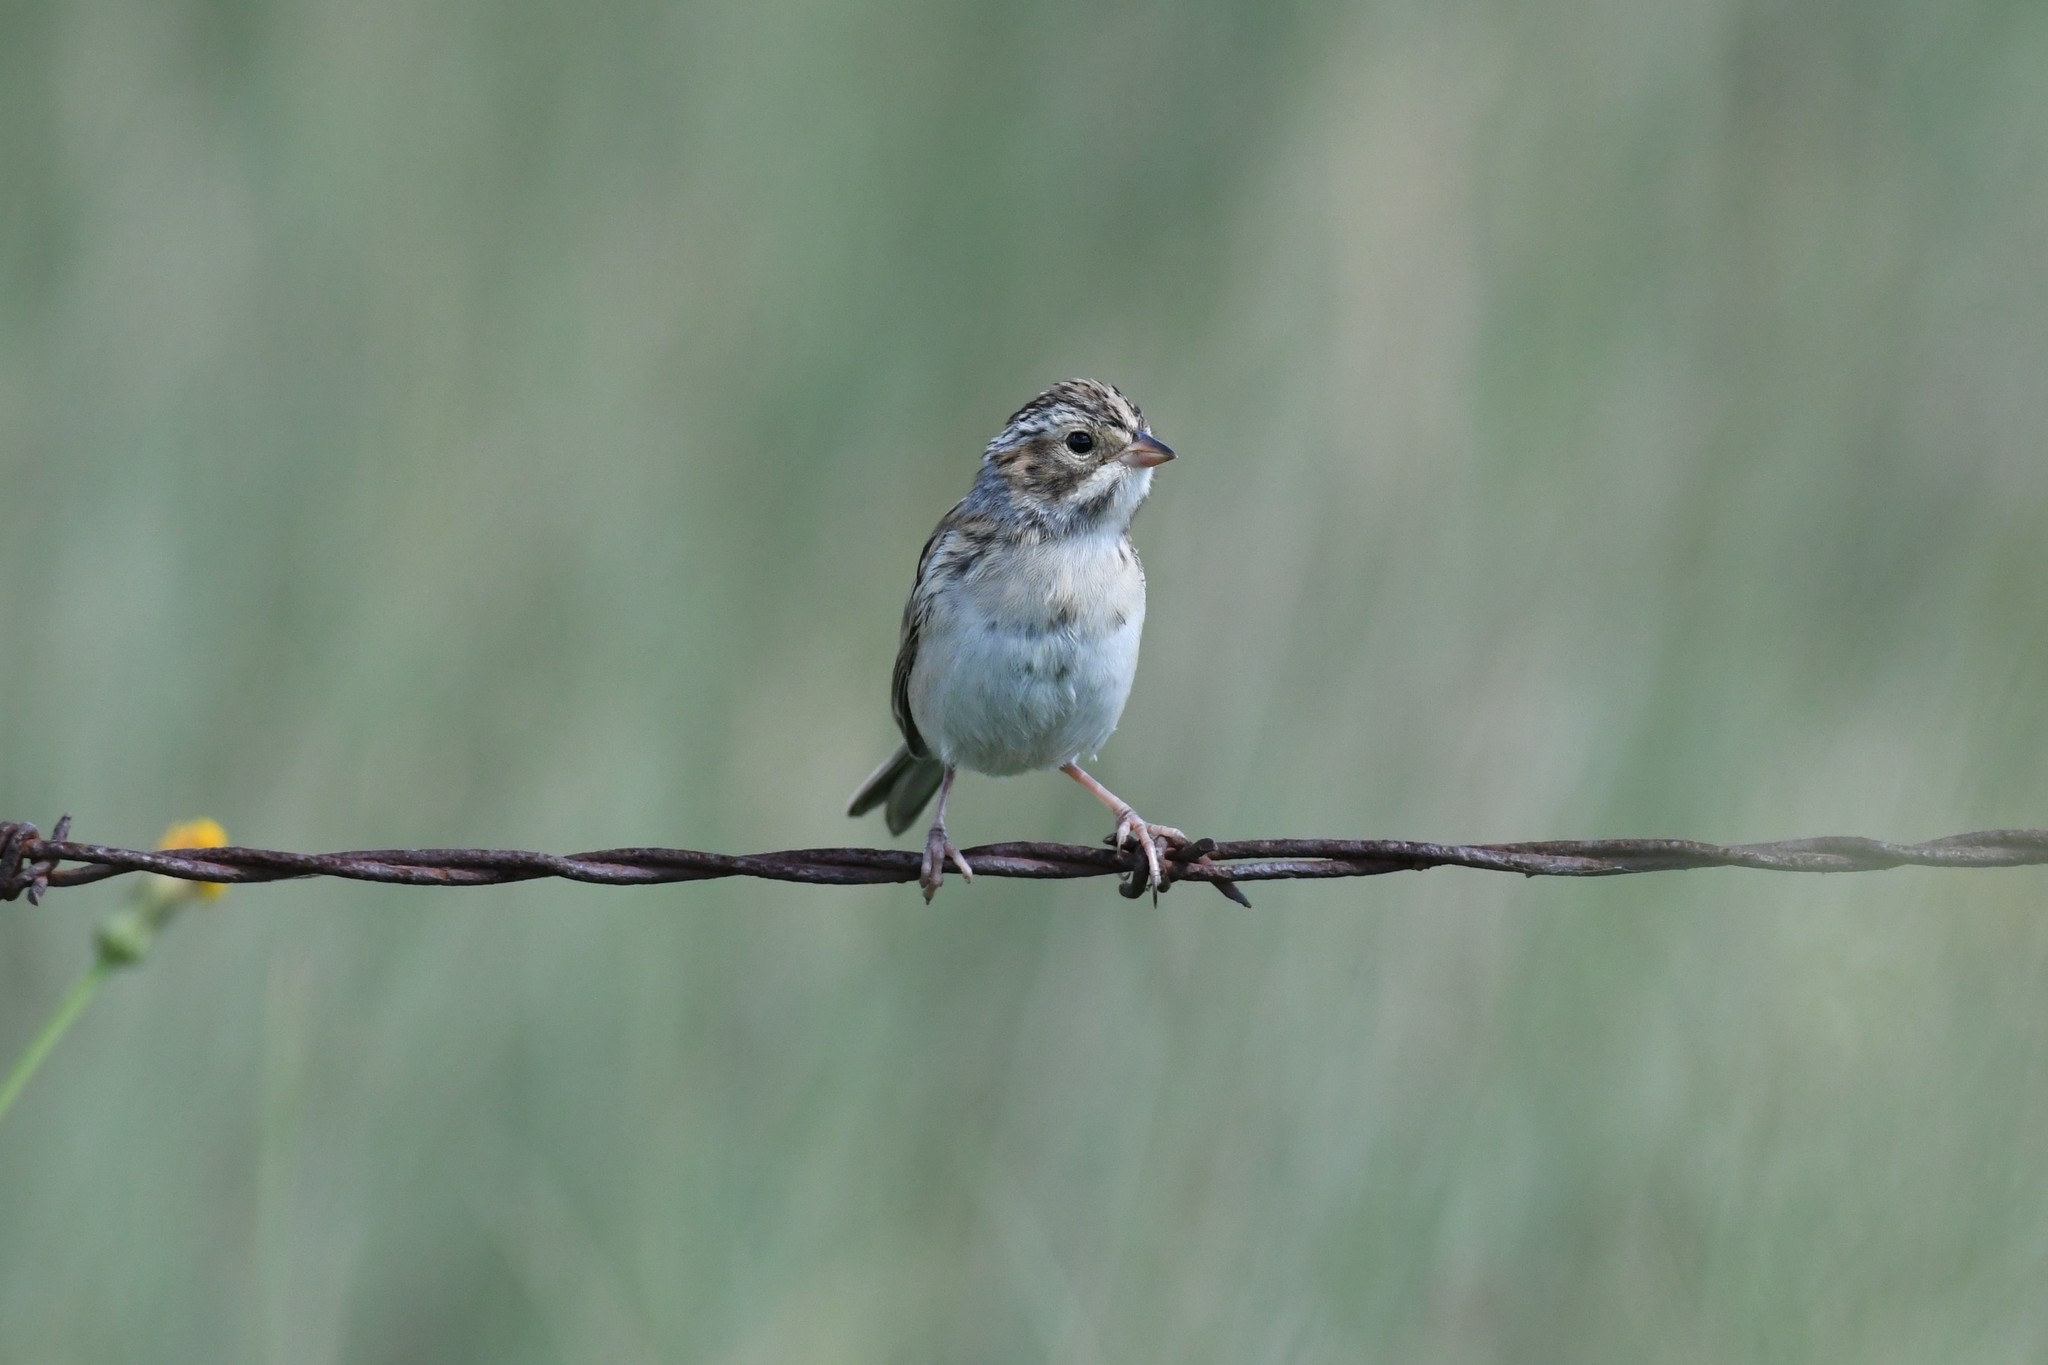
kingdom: Animalia
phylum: Chordata
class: Aves
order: Passeriformes
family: Passerellidae
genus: Spizella
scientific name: Spizella pallida
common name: Clay-colored sparrow
